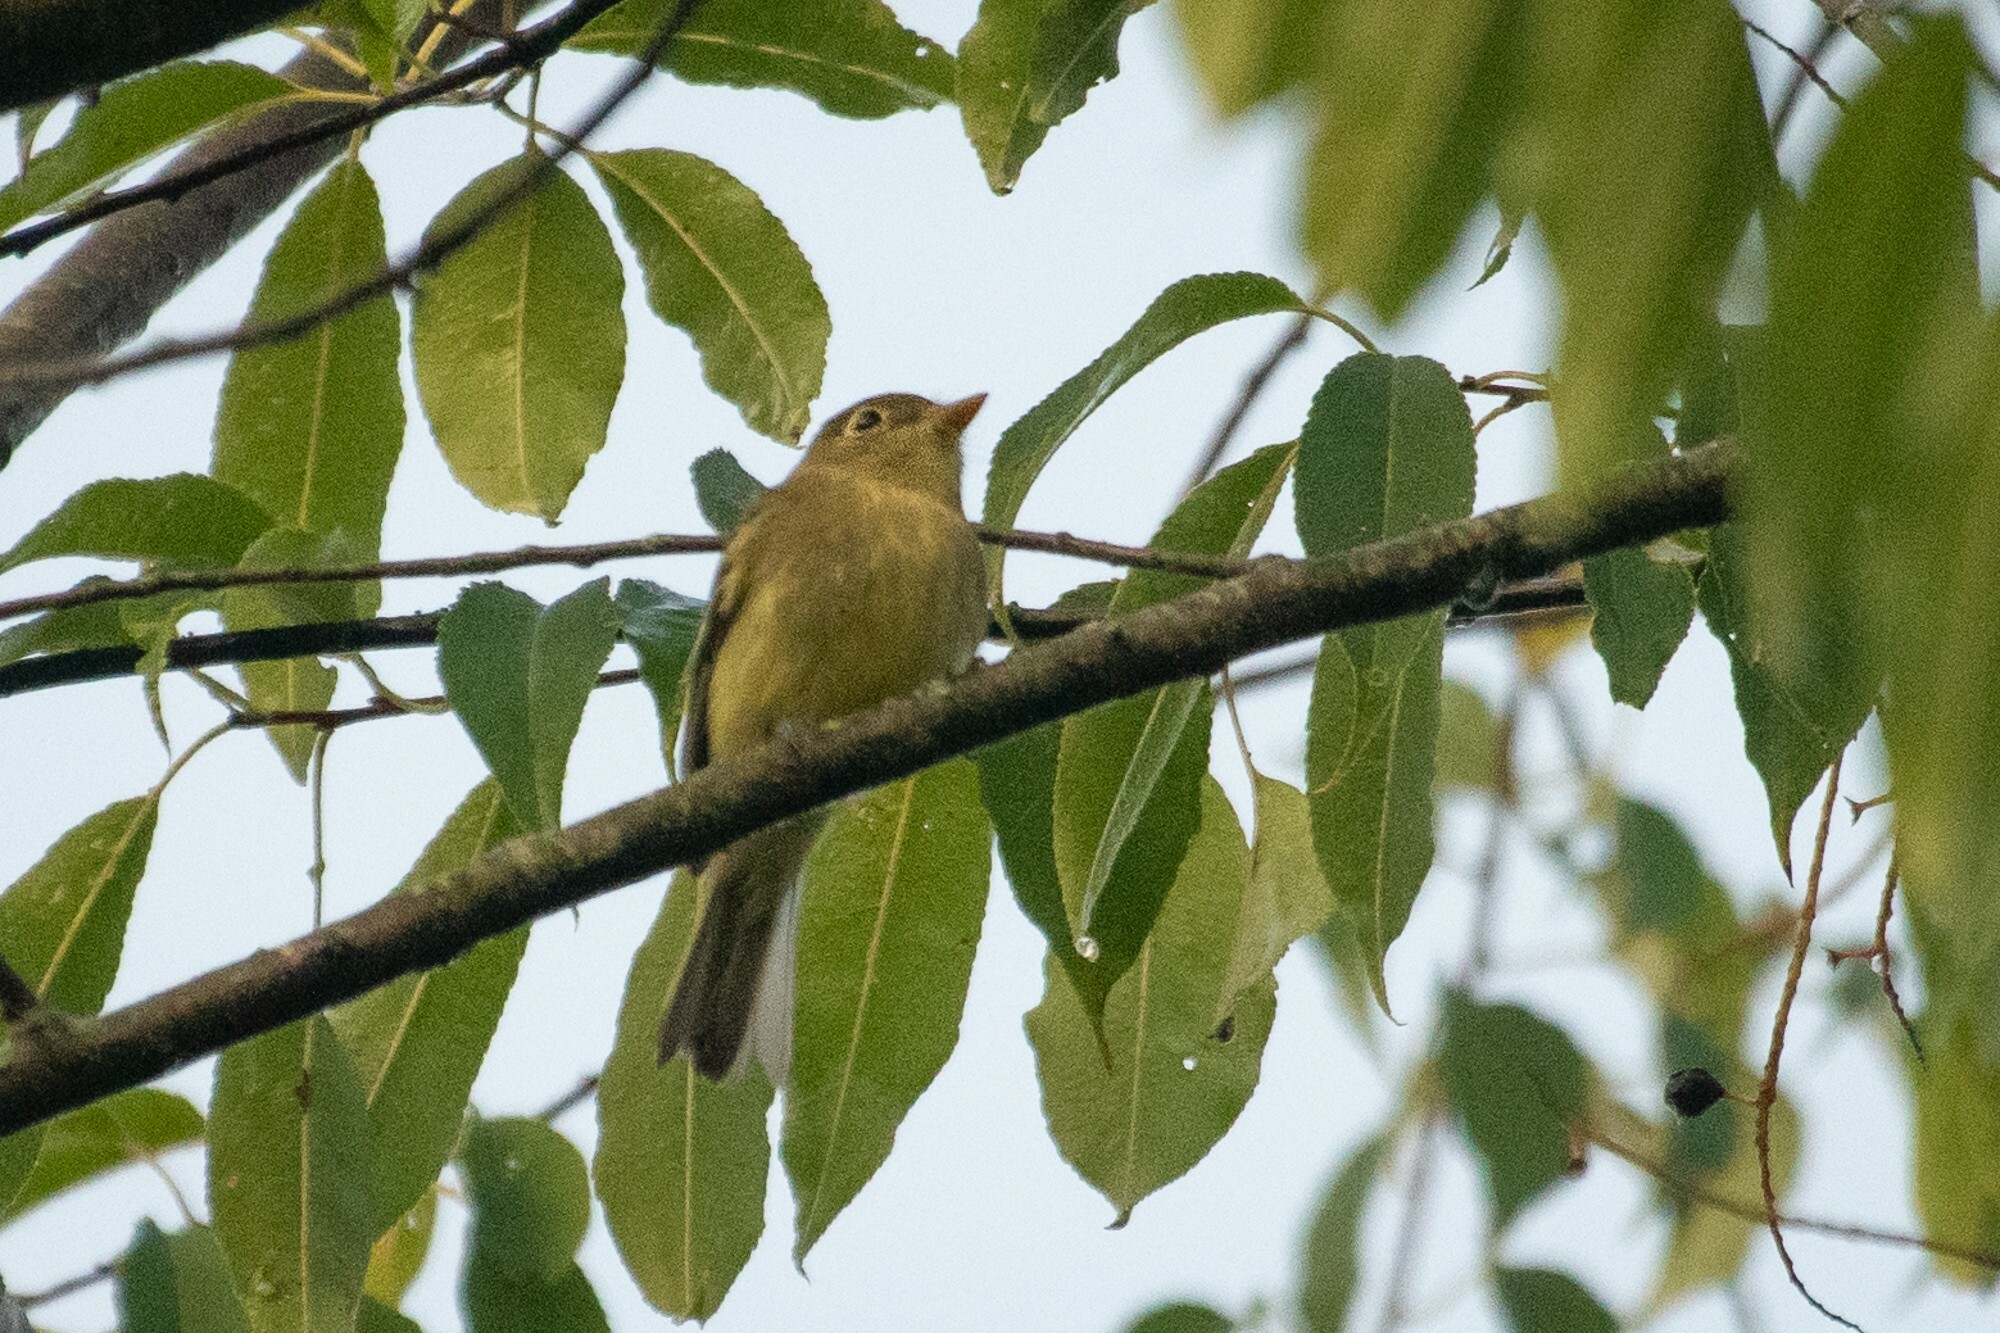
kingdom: Animalia
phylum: Chordata
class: Aves
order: Passeriformes
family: Tyrannidae
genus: Empidonax
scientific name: Empidonax flaviventris
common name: Yellow-bellied flycatcher
